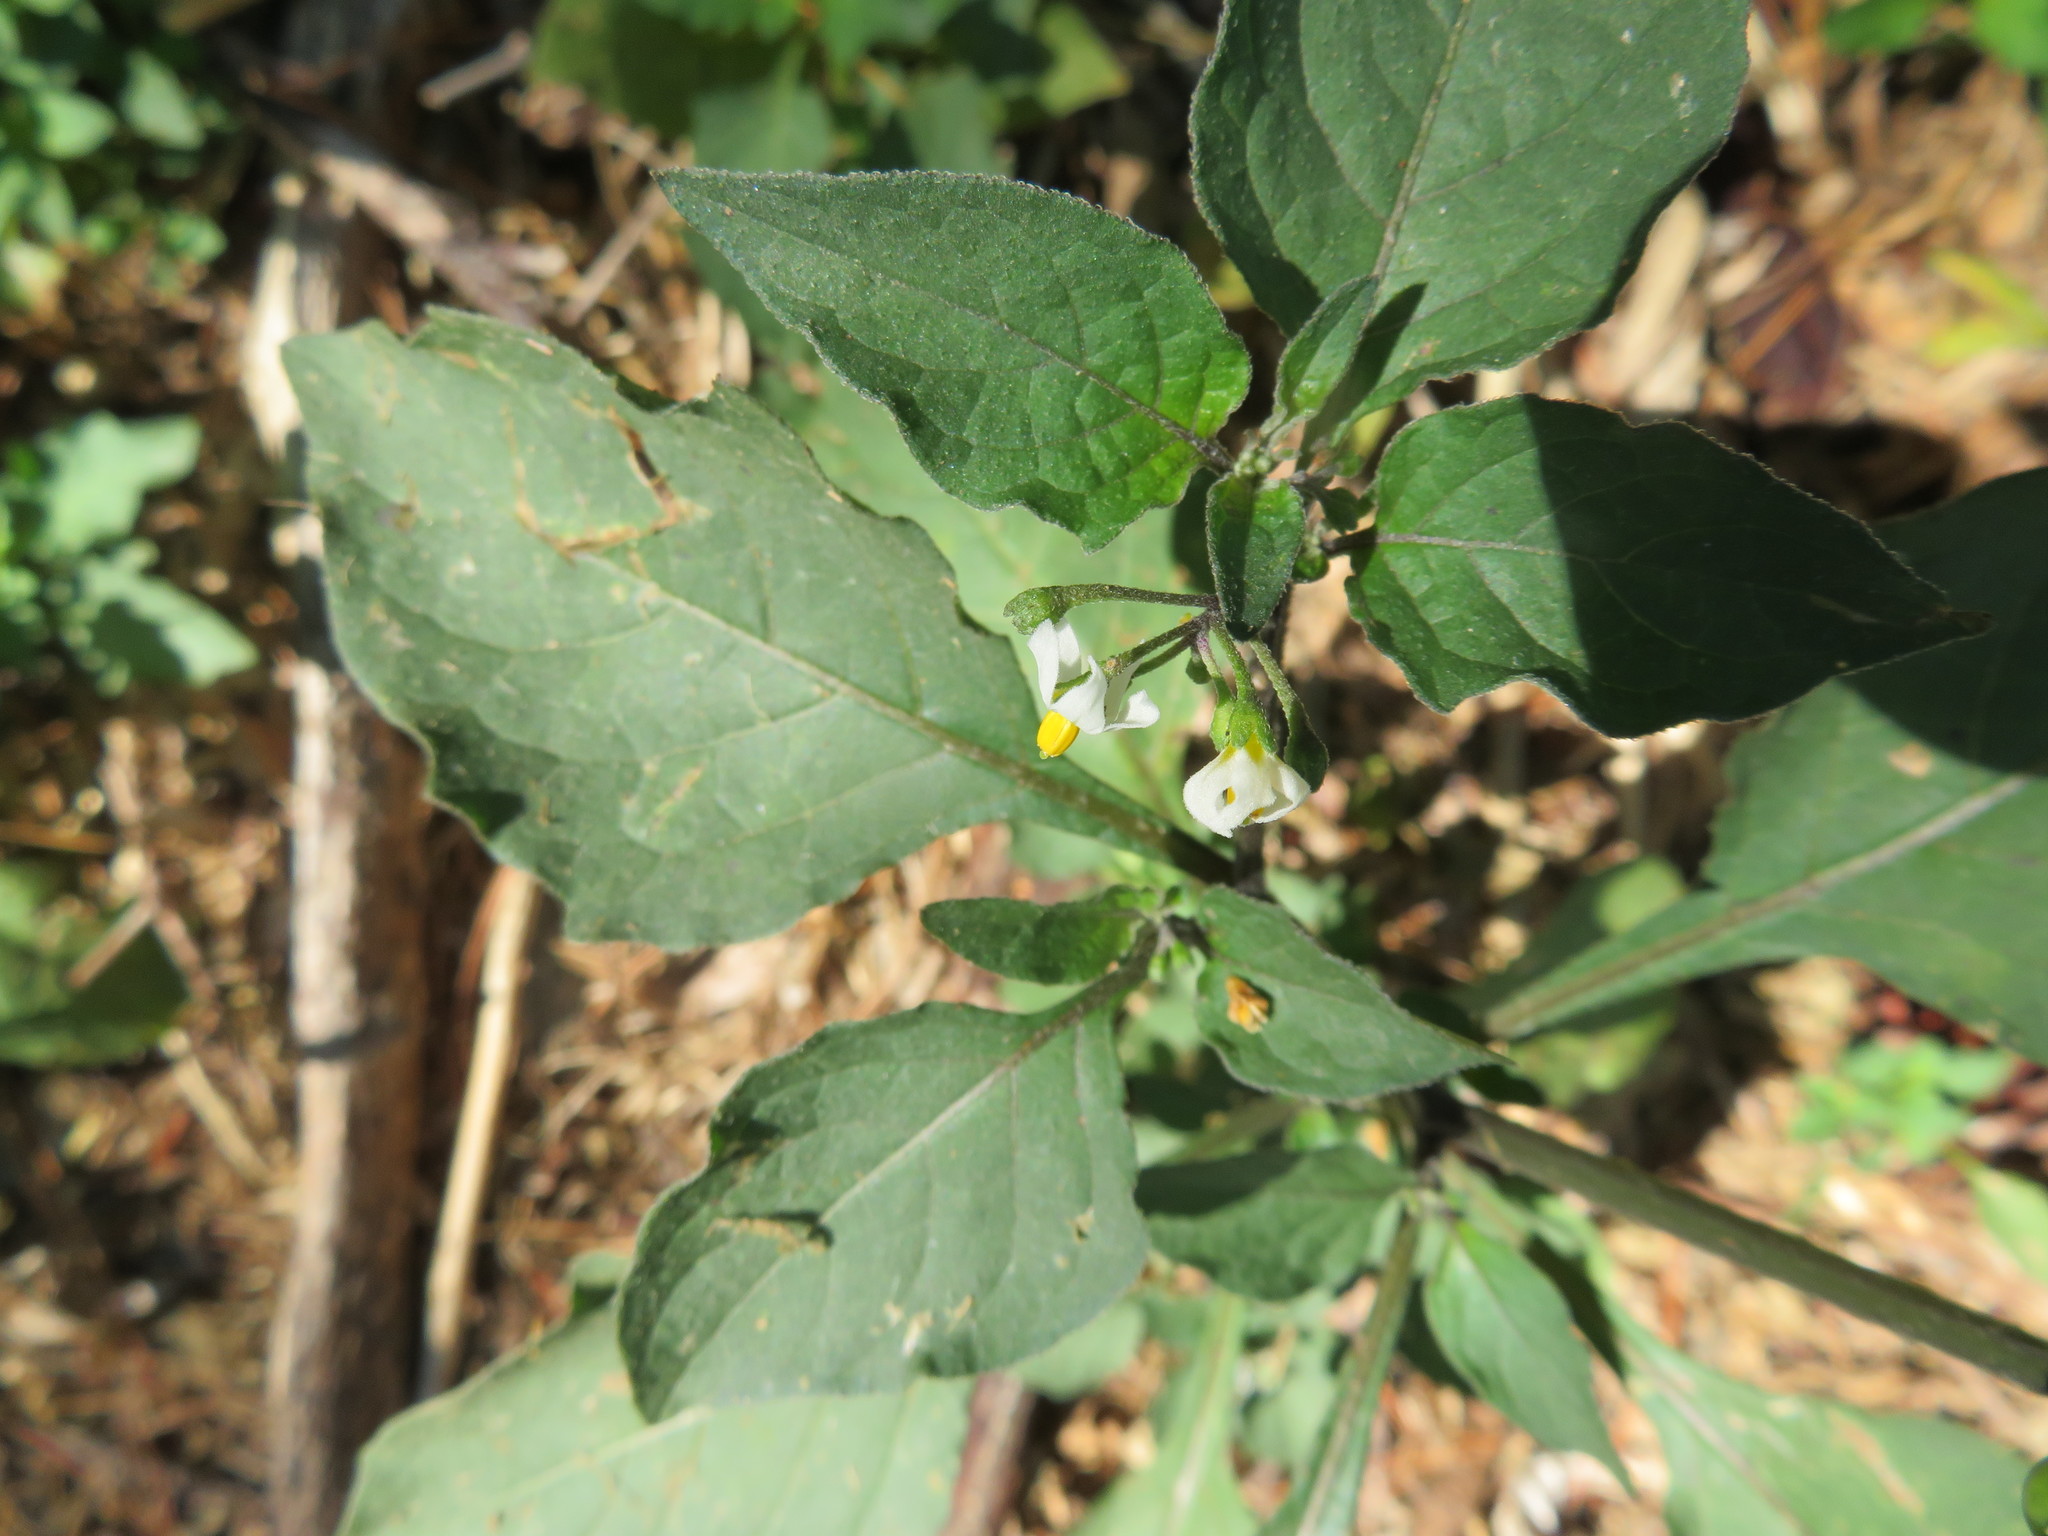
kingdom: Plantae
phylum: Tracheophyta
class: Magnoliopsida
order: Solanales
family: Solanaceae
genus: Solanum
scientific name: Solanum nigrum
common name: Black nightshade
